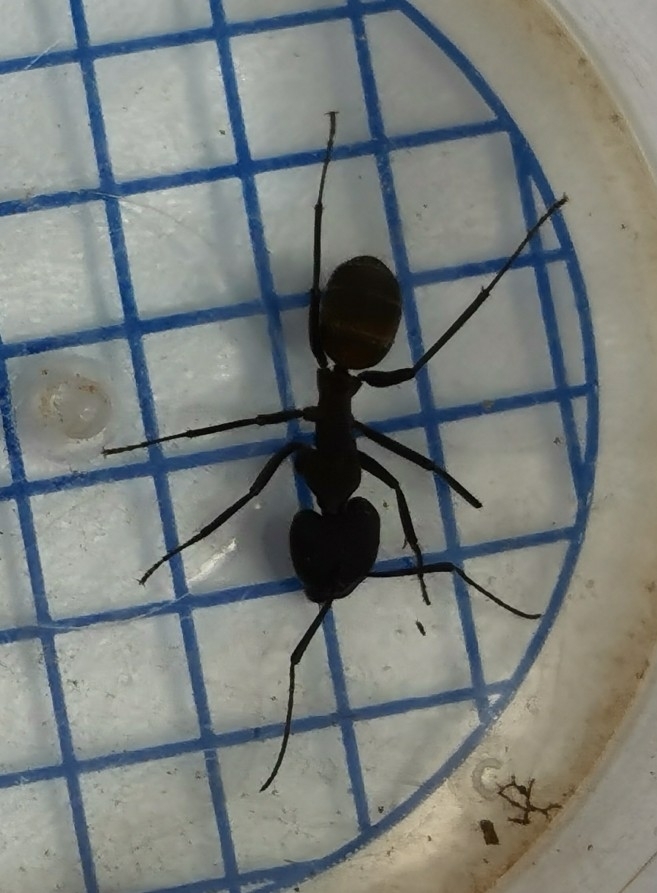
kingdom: Animalia
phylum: Arthropoda
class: Insecta
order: Hymenoptera
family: Formicidae
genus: Camponotus
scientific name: Camponotus cruentatus
